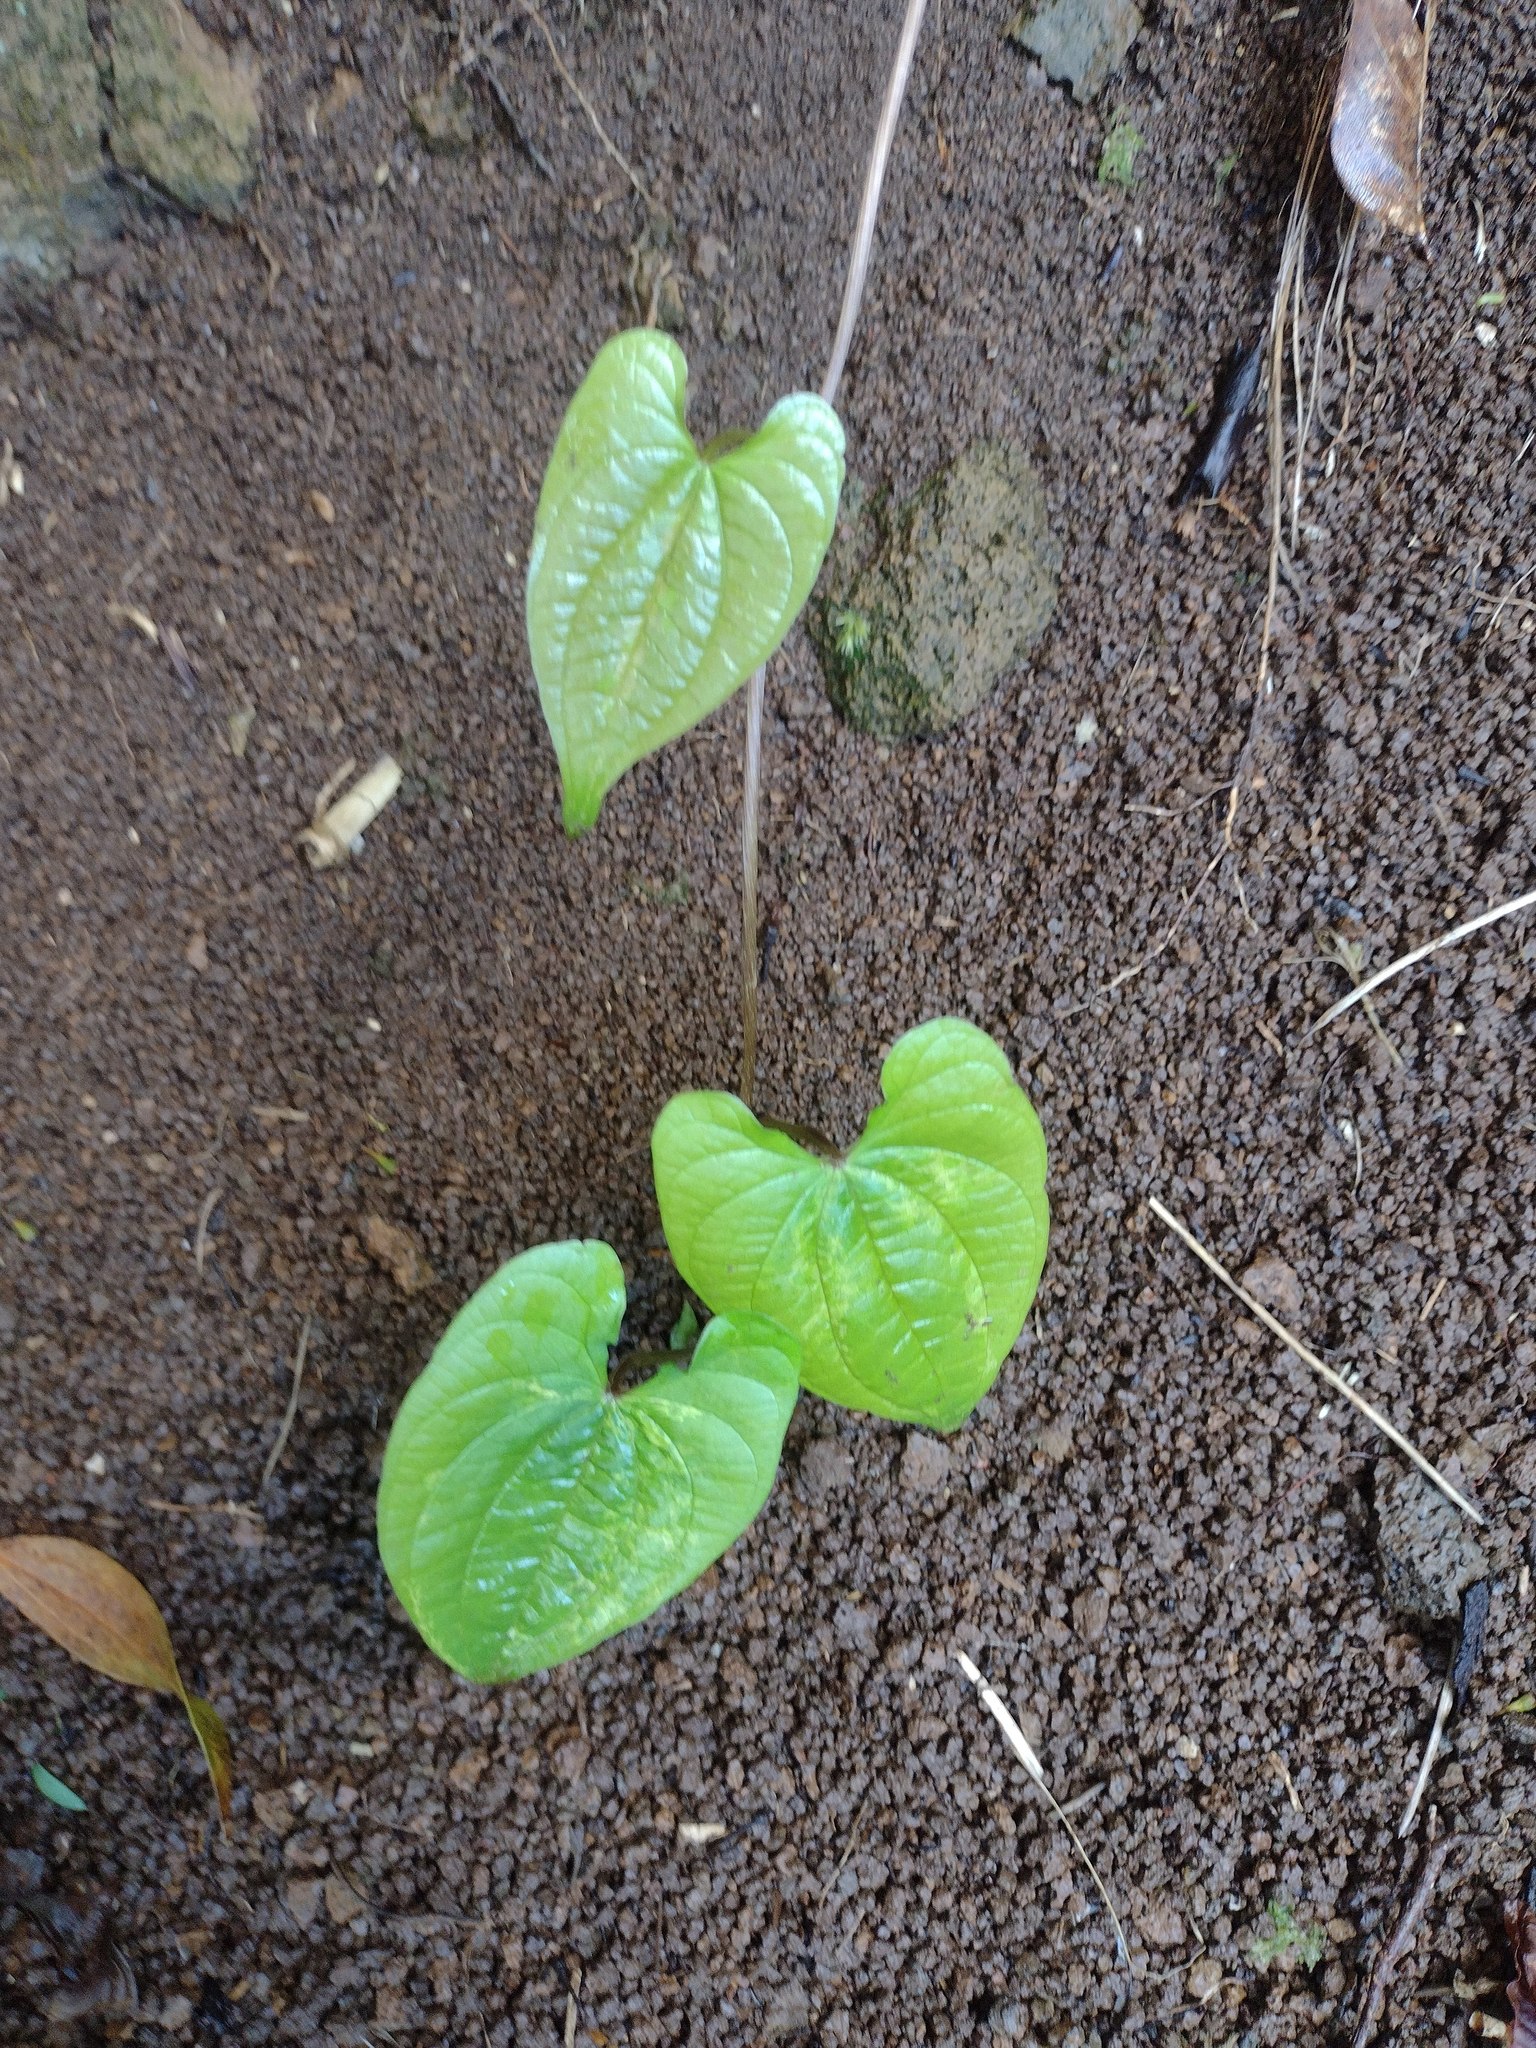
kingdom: Plantae
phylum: Tracheophyta
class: Liliopsida
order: Dioscoreales
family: Dioscoreaceae
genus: Dioscorea
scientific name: Dioscorea bulbifera
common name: Air yam
